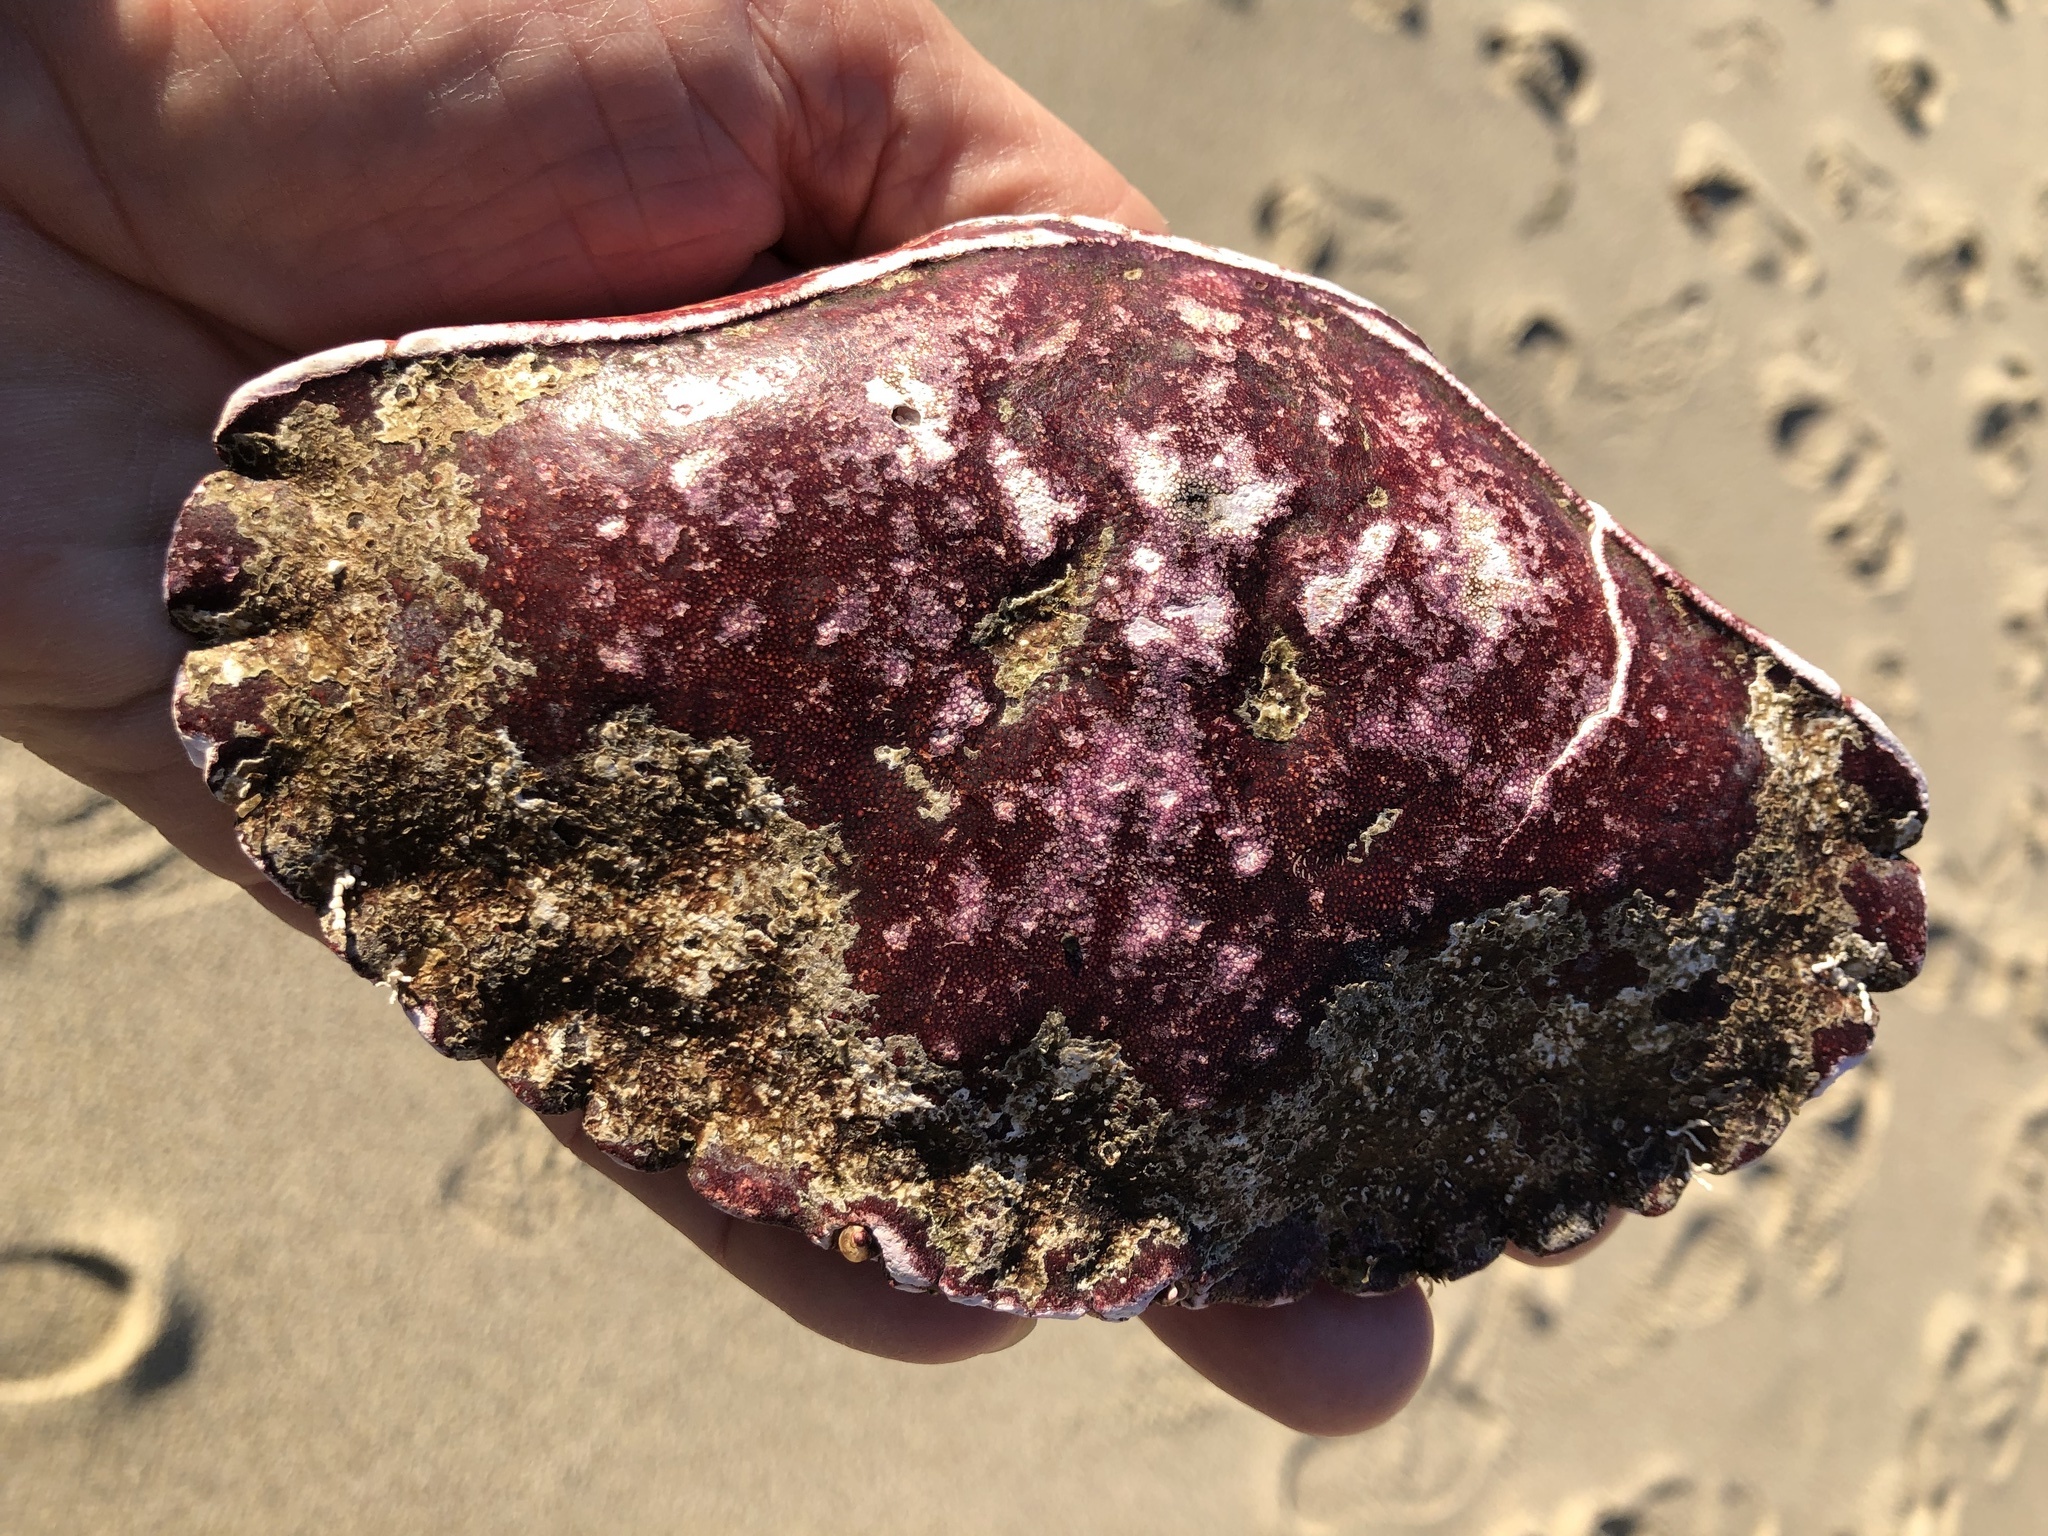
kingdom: Animalia
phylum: Arthropoda
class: Malacostraca
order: Decapoda
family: Cancridae
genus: Cancer
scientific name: Cancer productus
